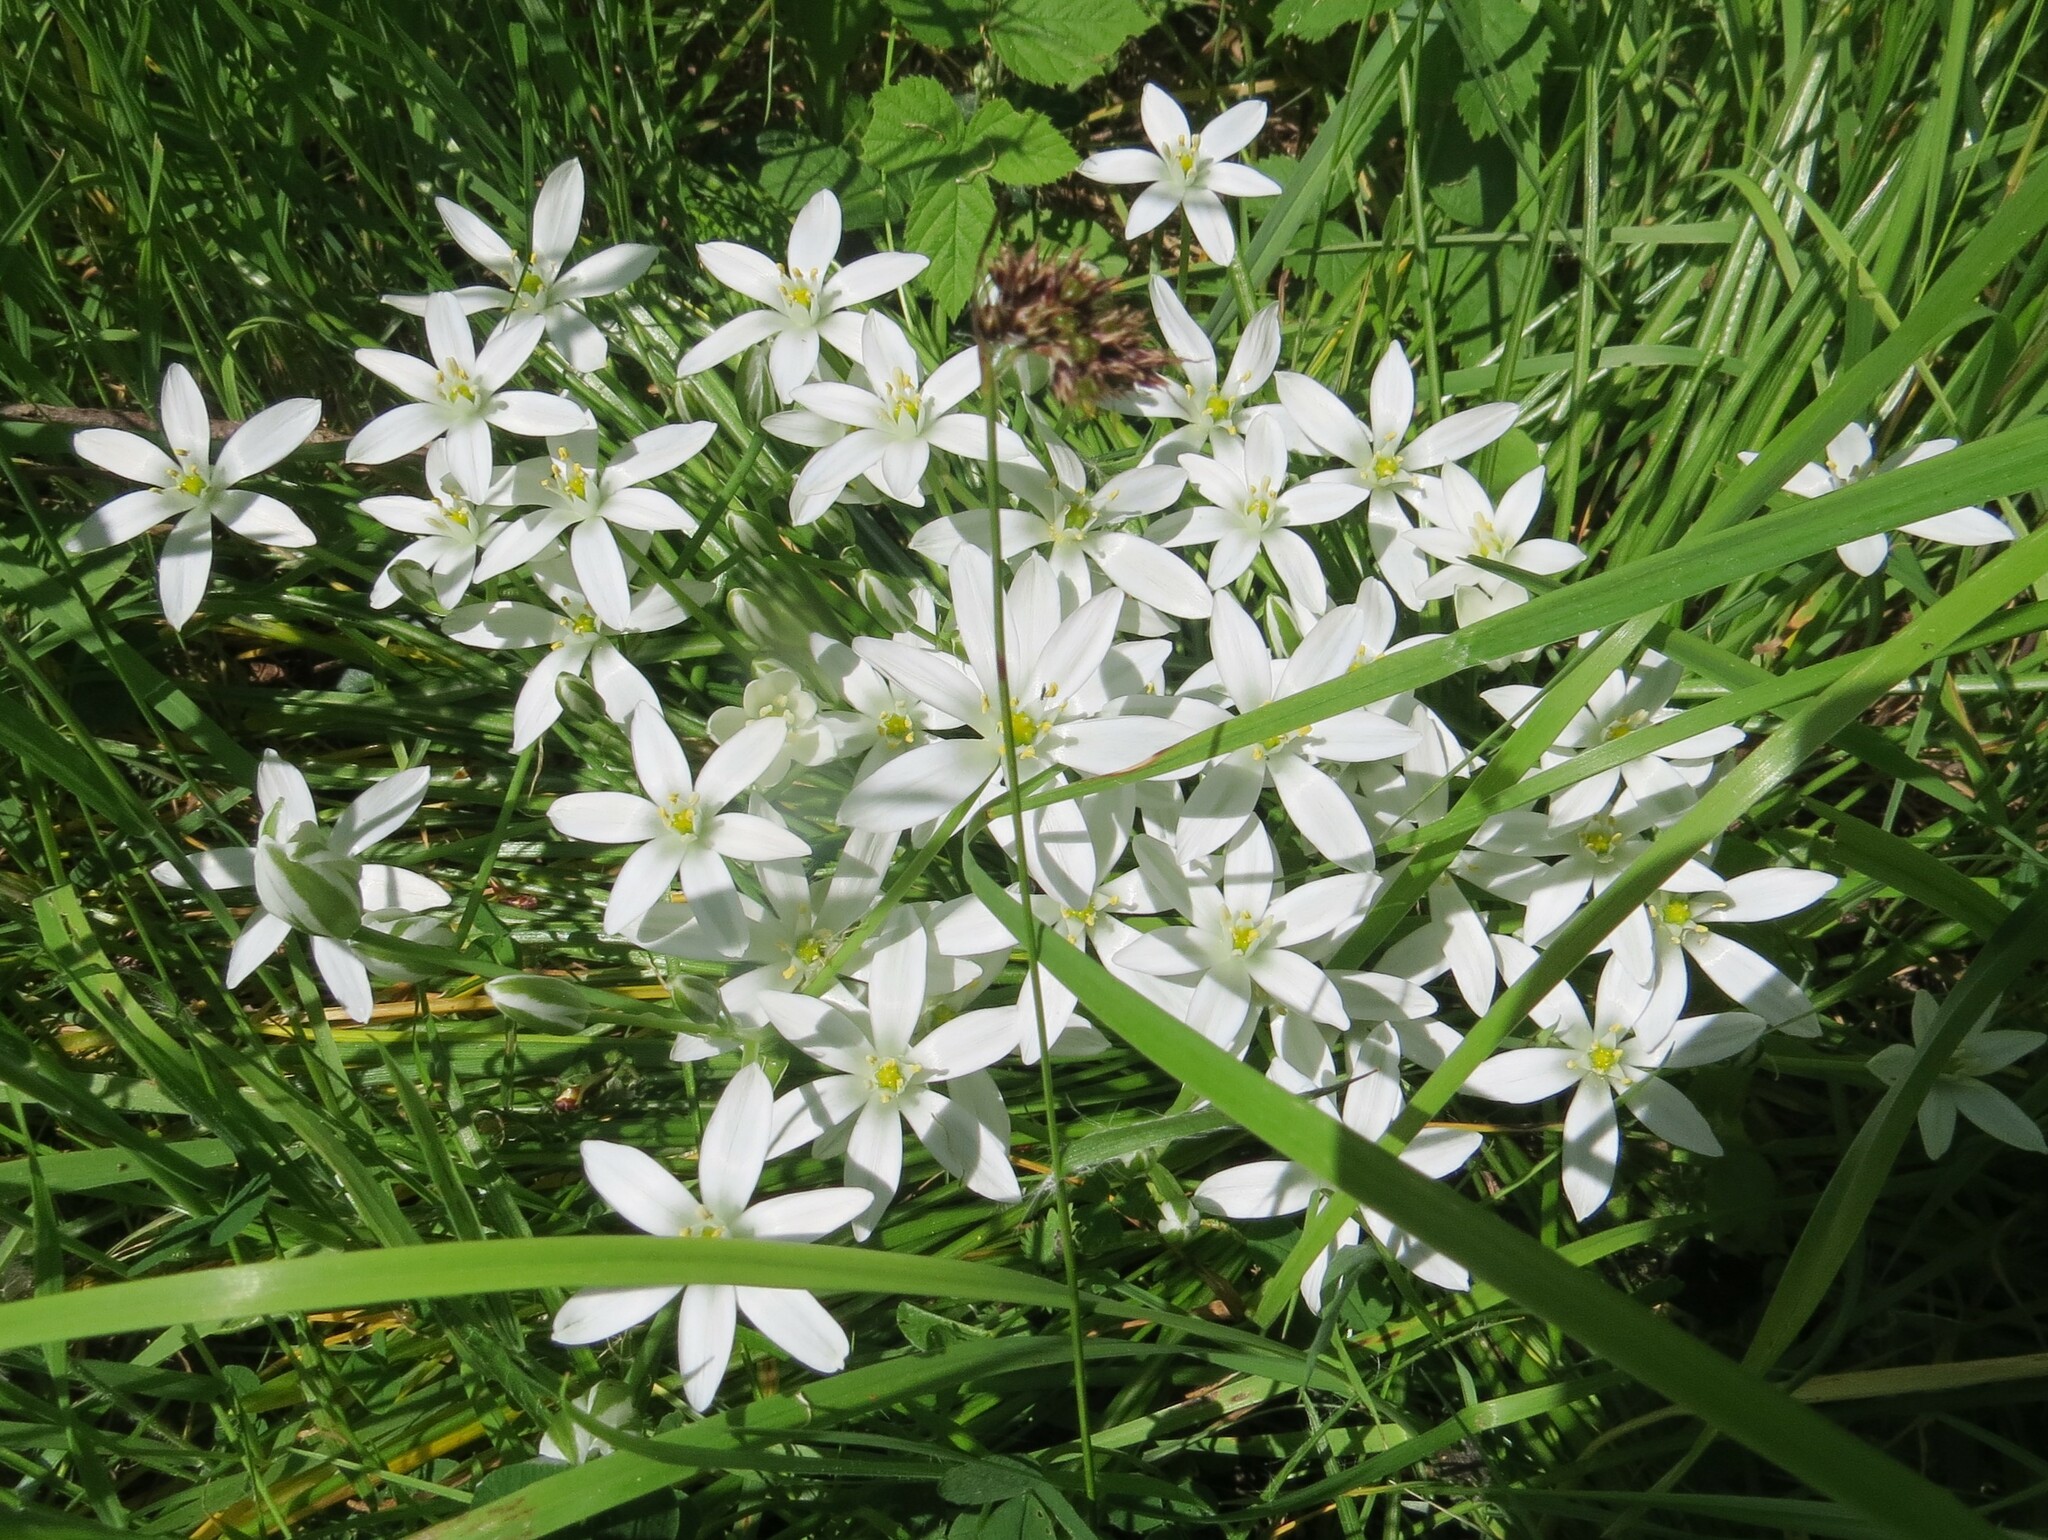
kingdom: Plantae
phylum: Tracheophyta
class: Liliopsida
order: Asparagales
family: Asparagaceae
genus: Ornithogalum
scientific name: Ornithogalum umbellatum
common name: Garden star-of-bethlehem
